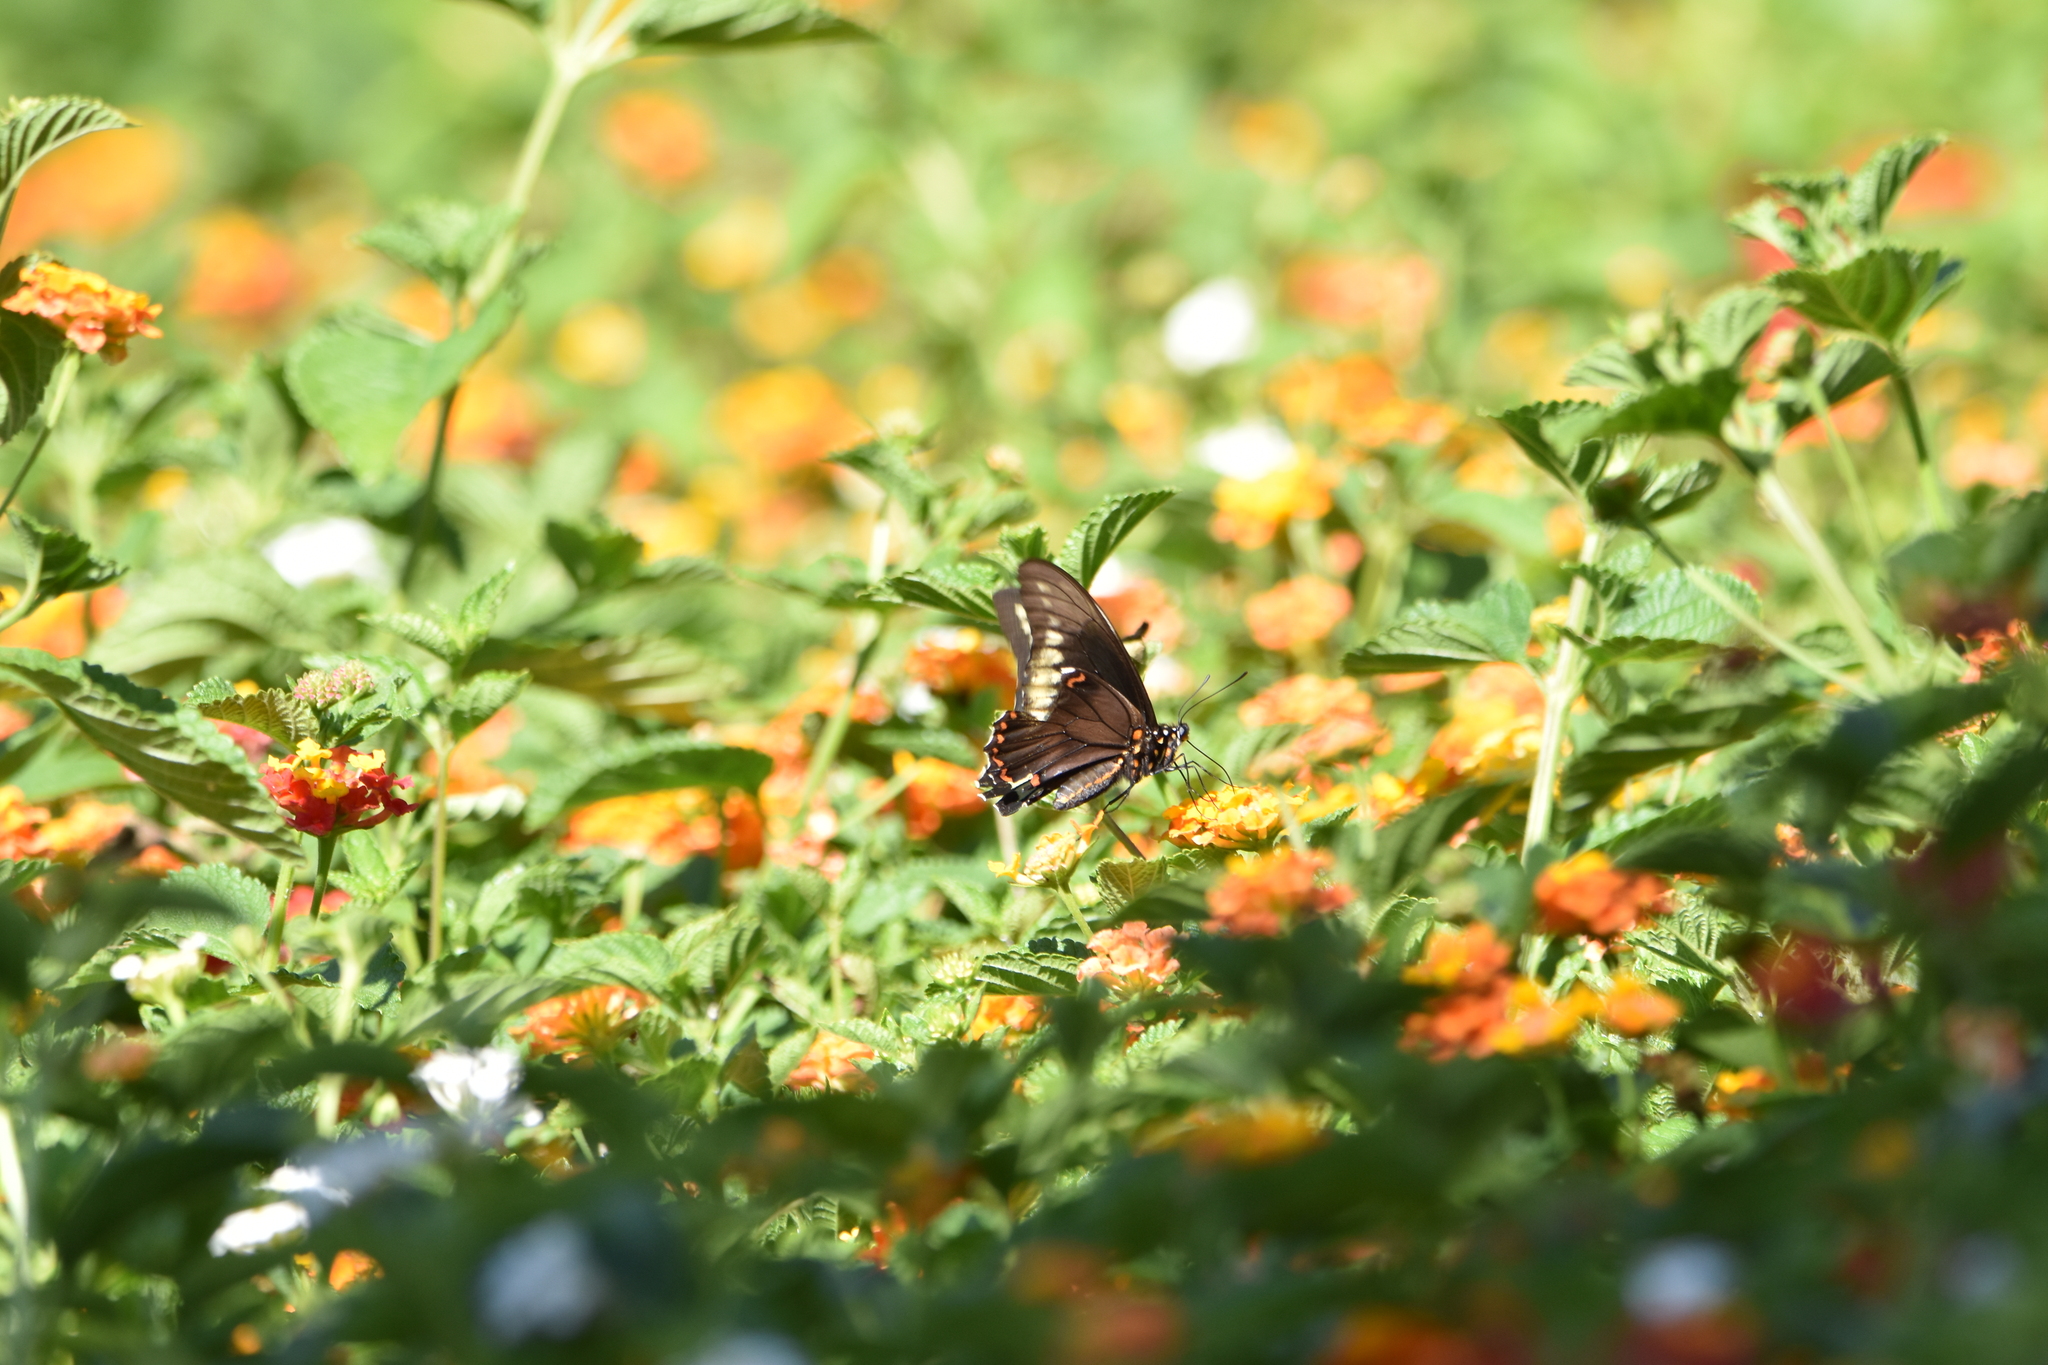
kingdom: Animalia
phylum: Arthropoda
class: Insecta
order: Lepidoptera
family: Papilionidae
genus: Battus
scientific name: Battus polydamas
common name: Polydamas swallowtail
